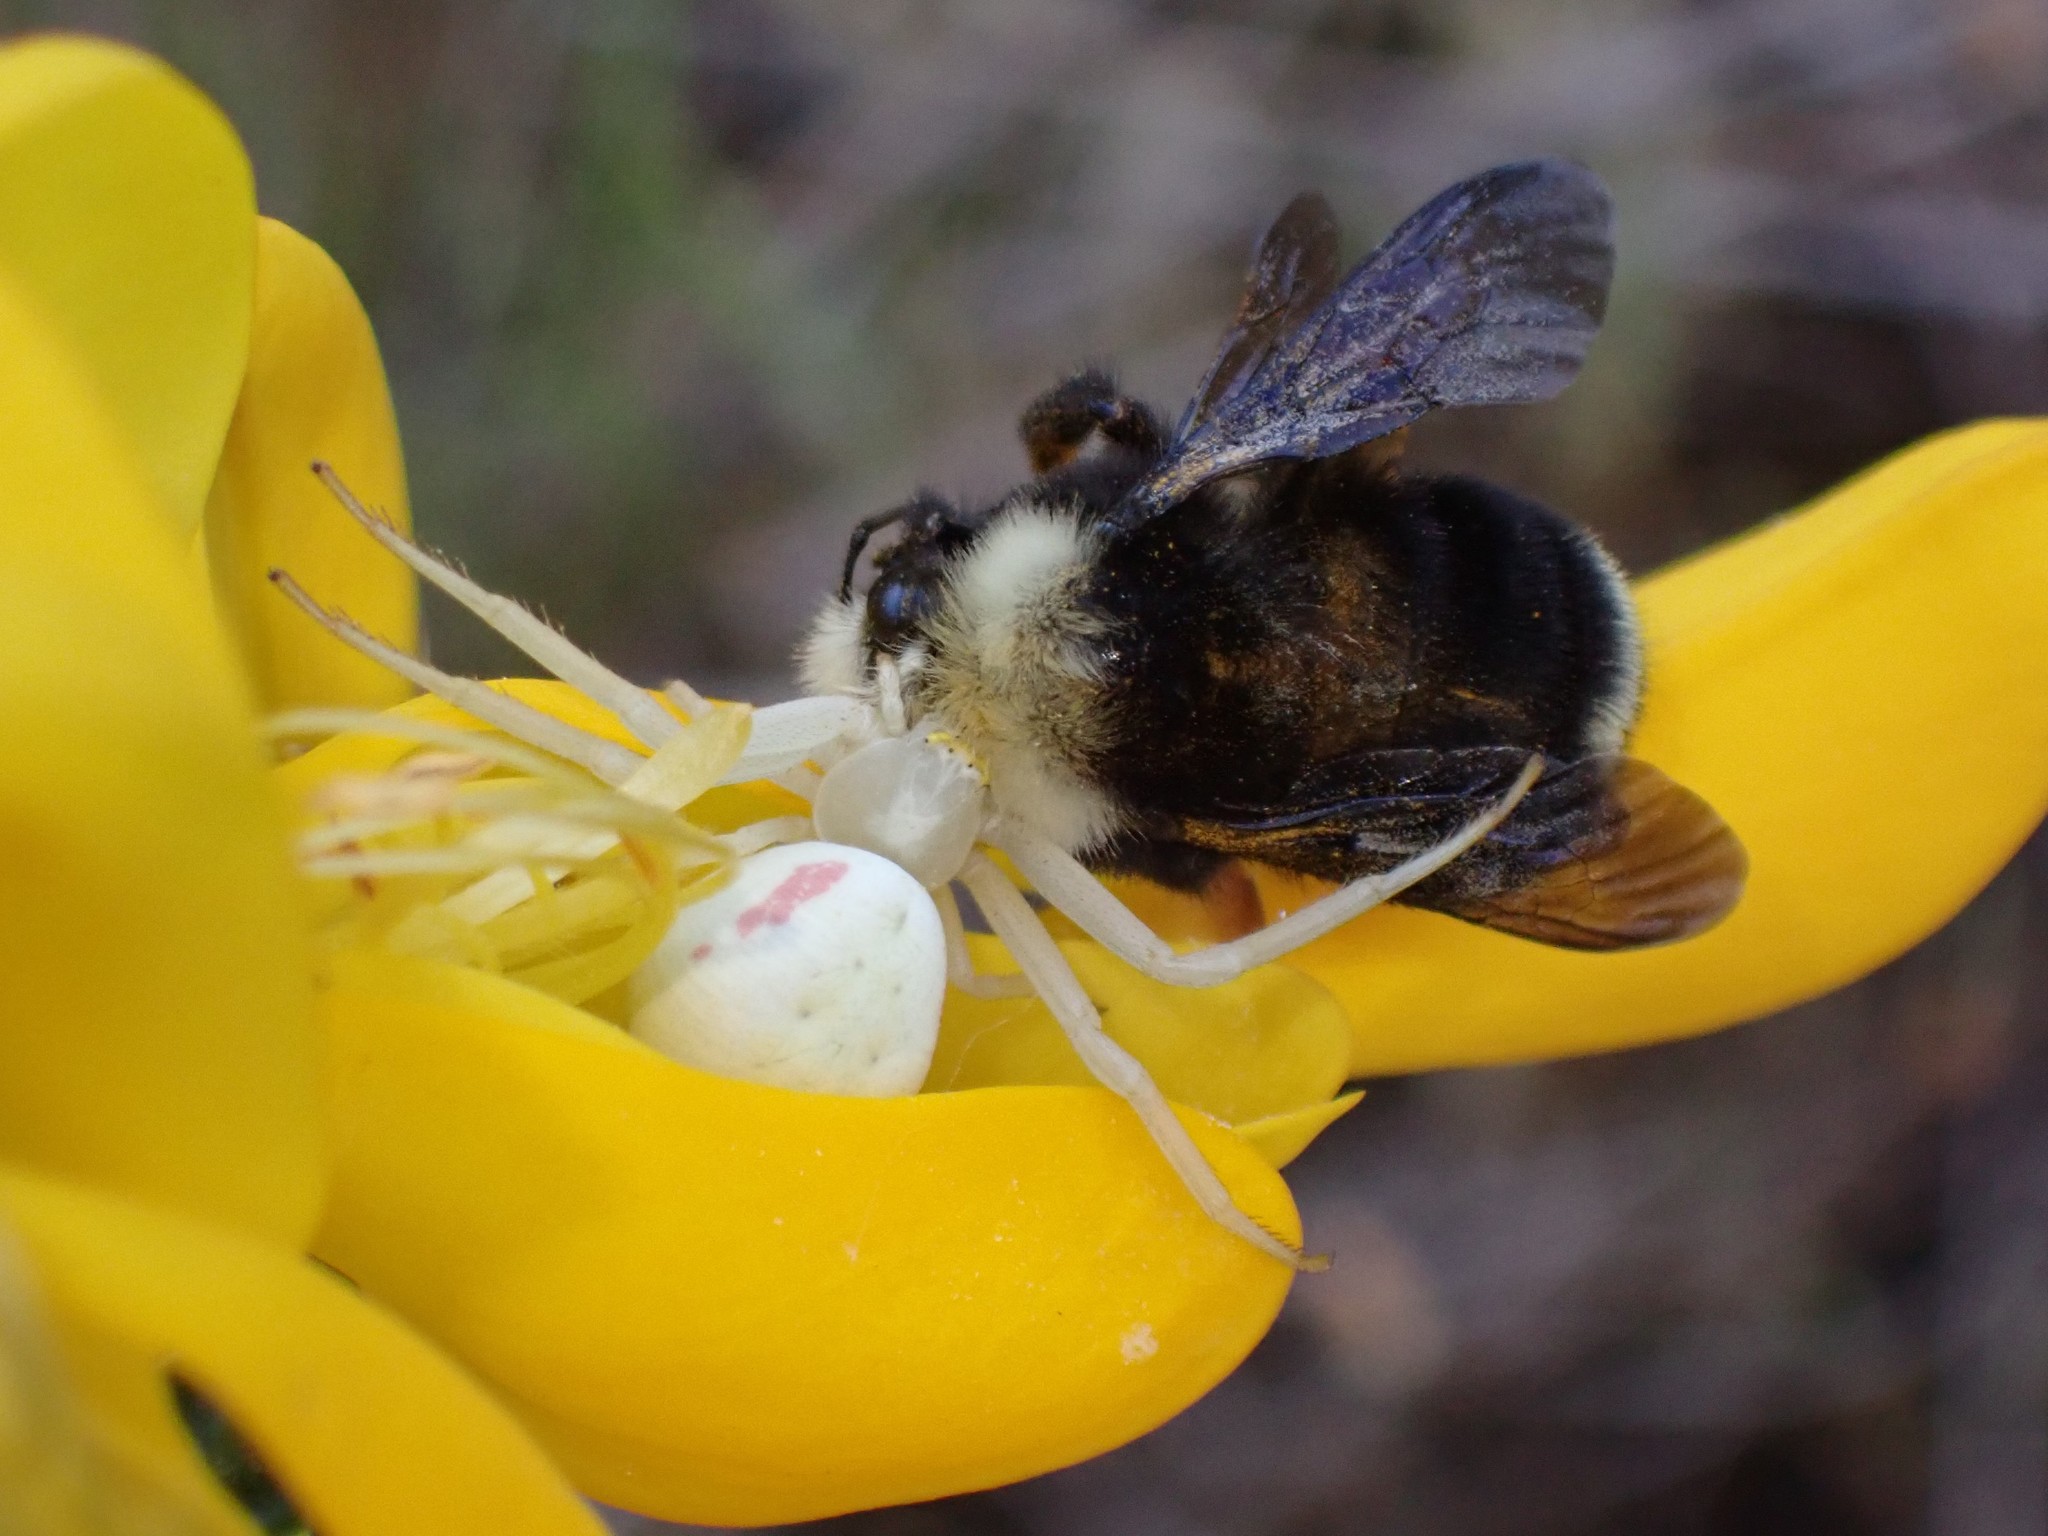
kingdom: Animalia
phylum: Arthropoda
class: Arachnida
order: Araneae
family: Thomisidae
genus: Misumena
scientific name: Misumena vatia
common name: Goldenrod crab spider
